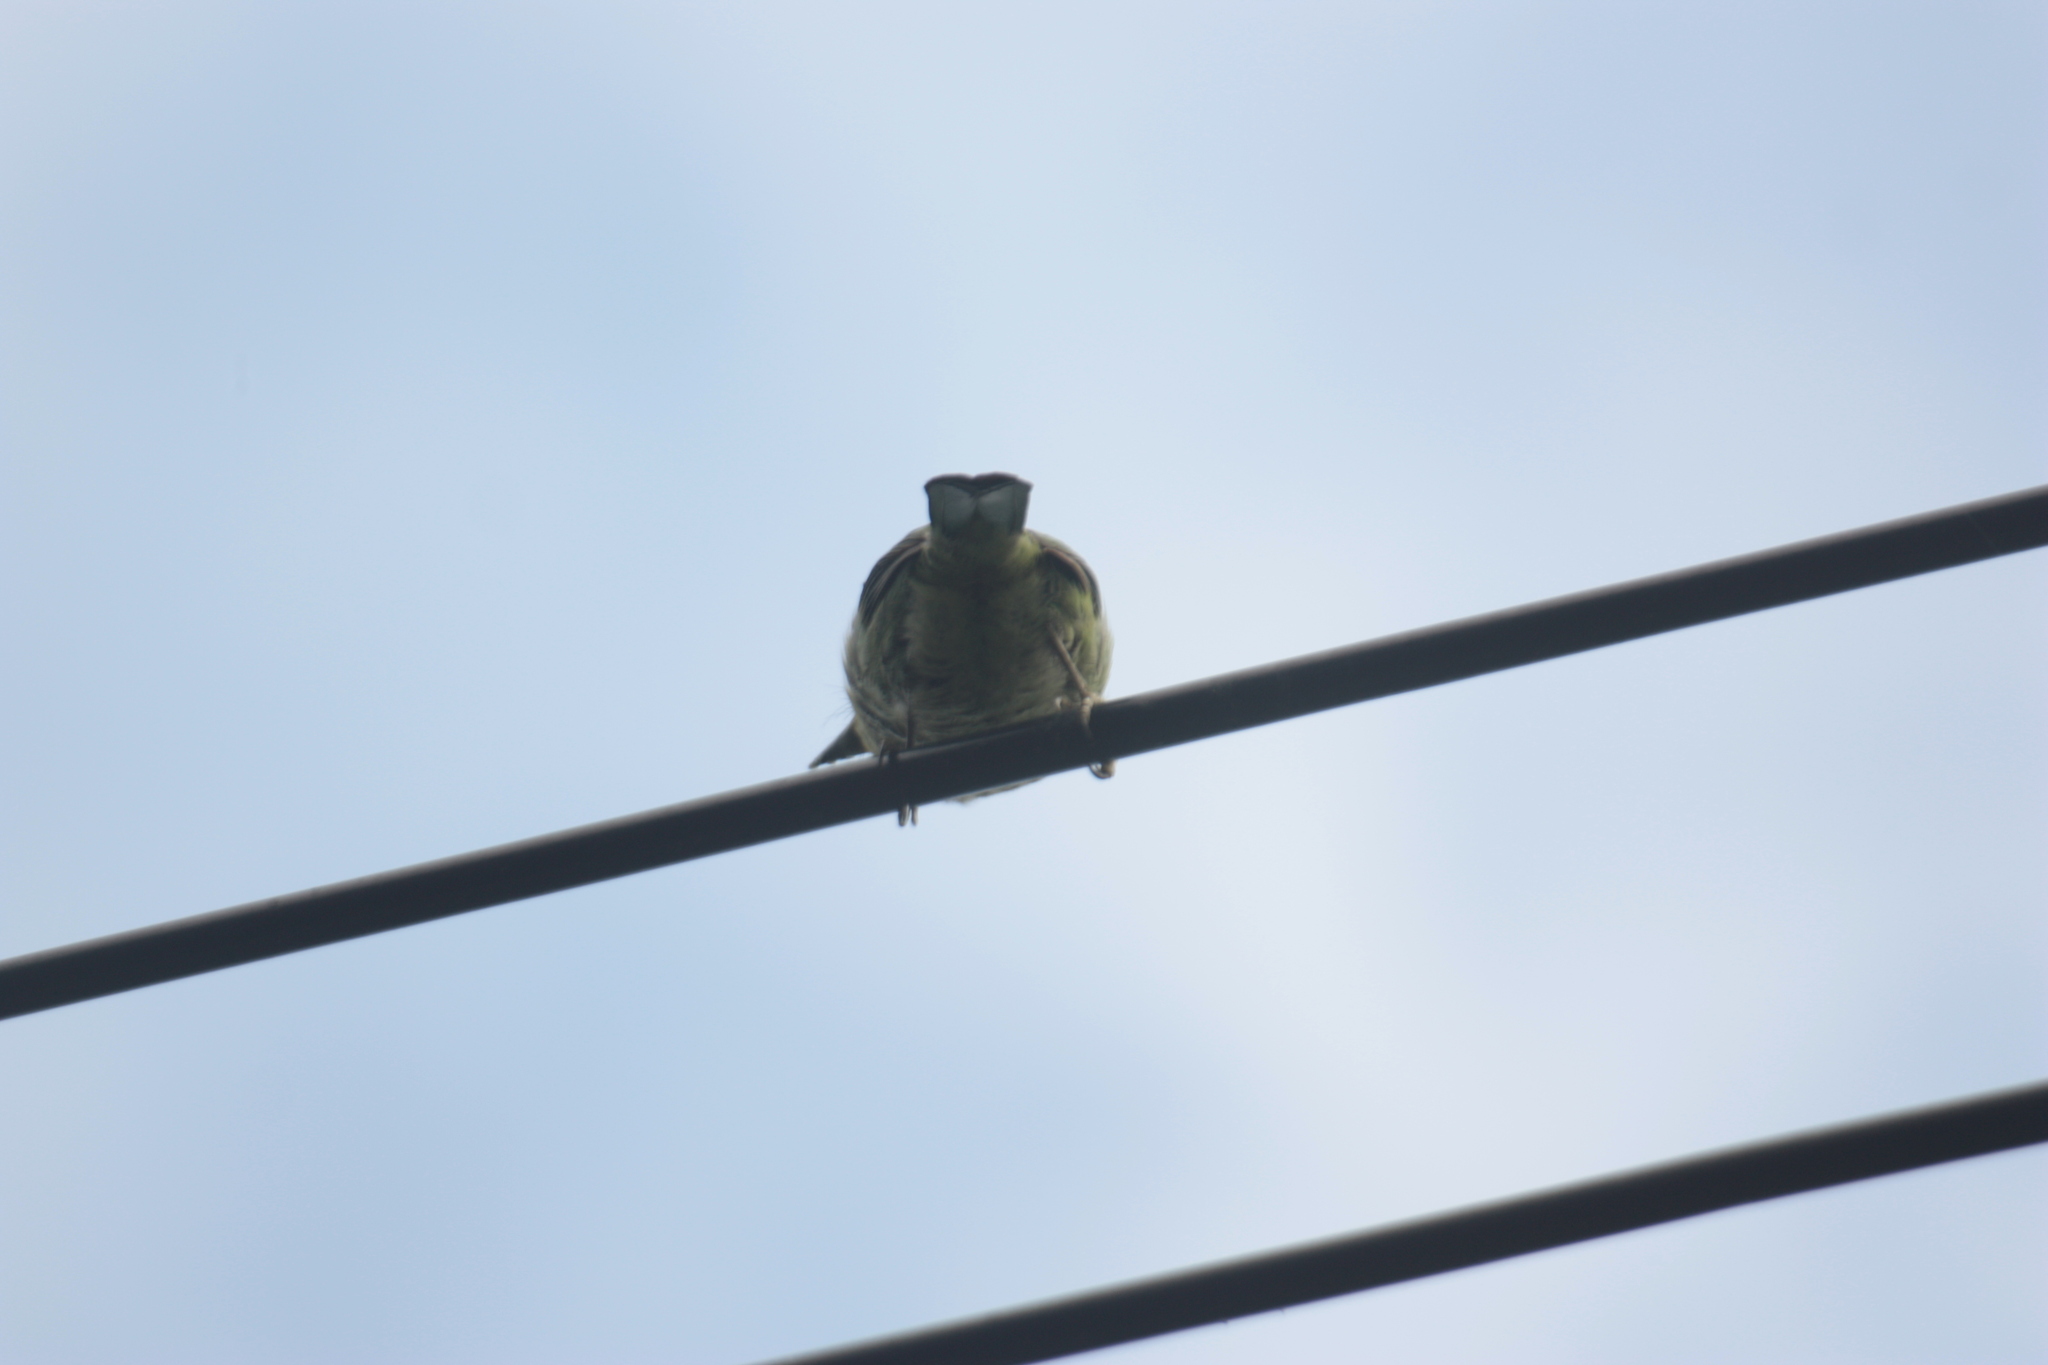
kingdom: Animalia
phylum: Chordata
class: Aves
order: Piciformes
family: Megalaimidae
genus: Psilopogon
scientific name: Psilopogon nuchalis
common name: Taiwan barbet
